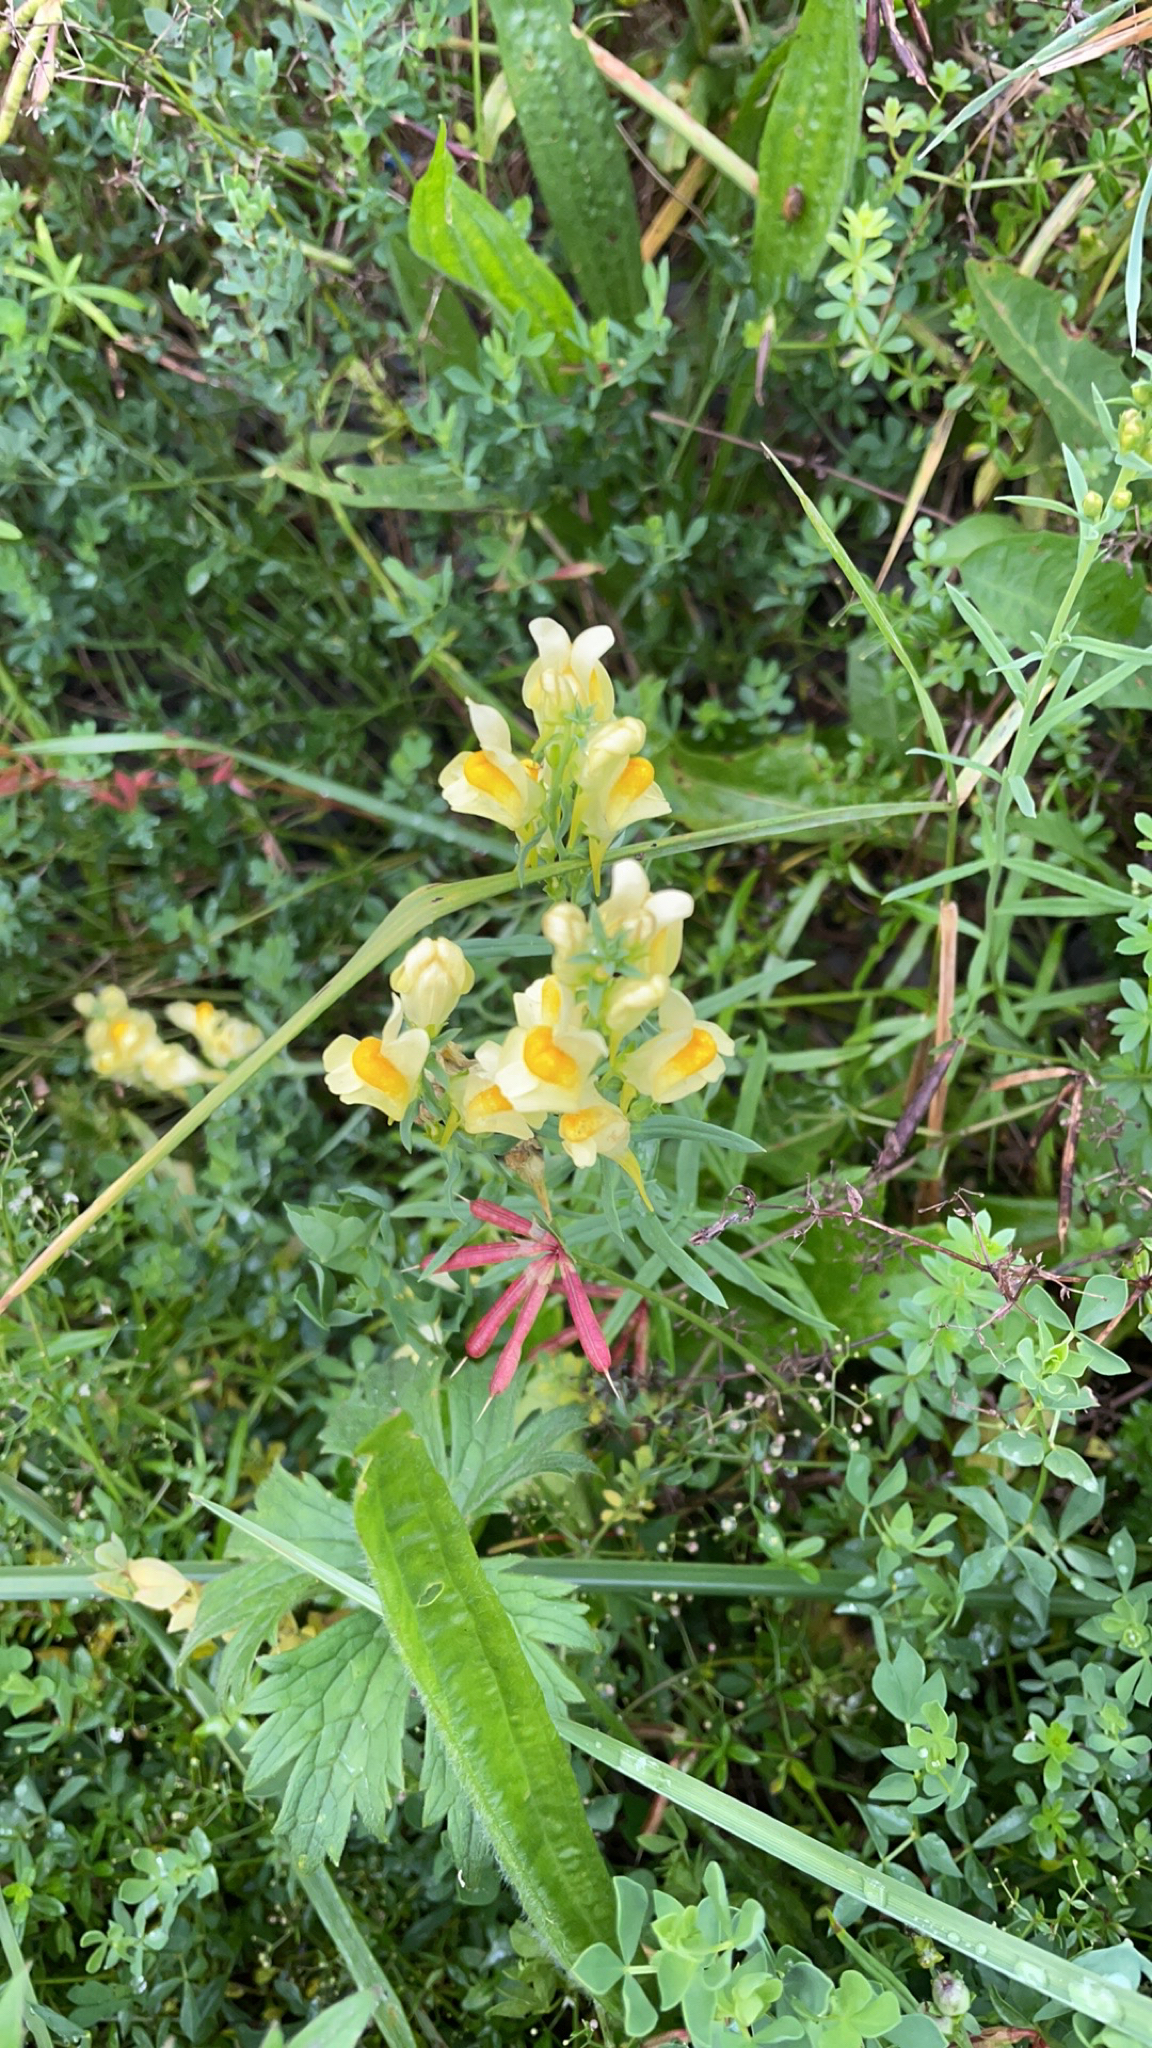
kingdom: Plantae
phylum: Tracheophyta
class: Magnoliopsida
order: Lamiales
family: Plantaginaceae
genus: Linaria
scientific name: Linaria vulgaris
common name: Butter and eggs
